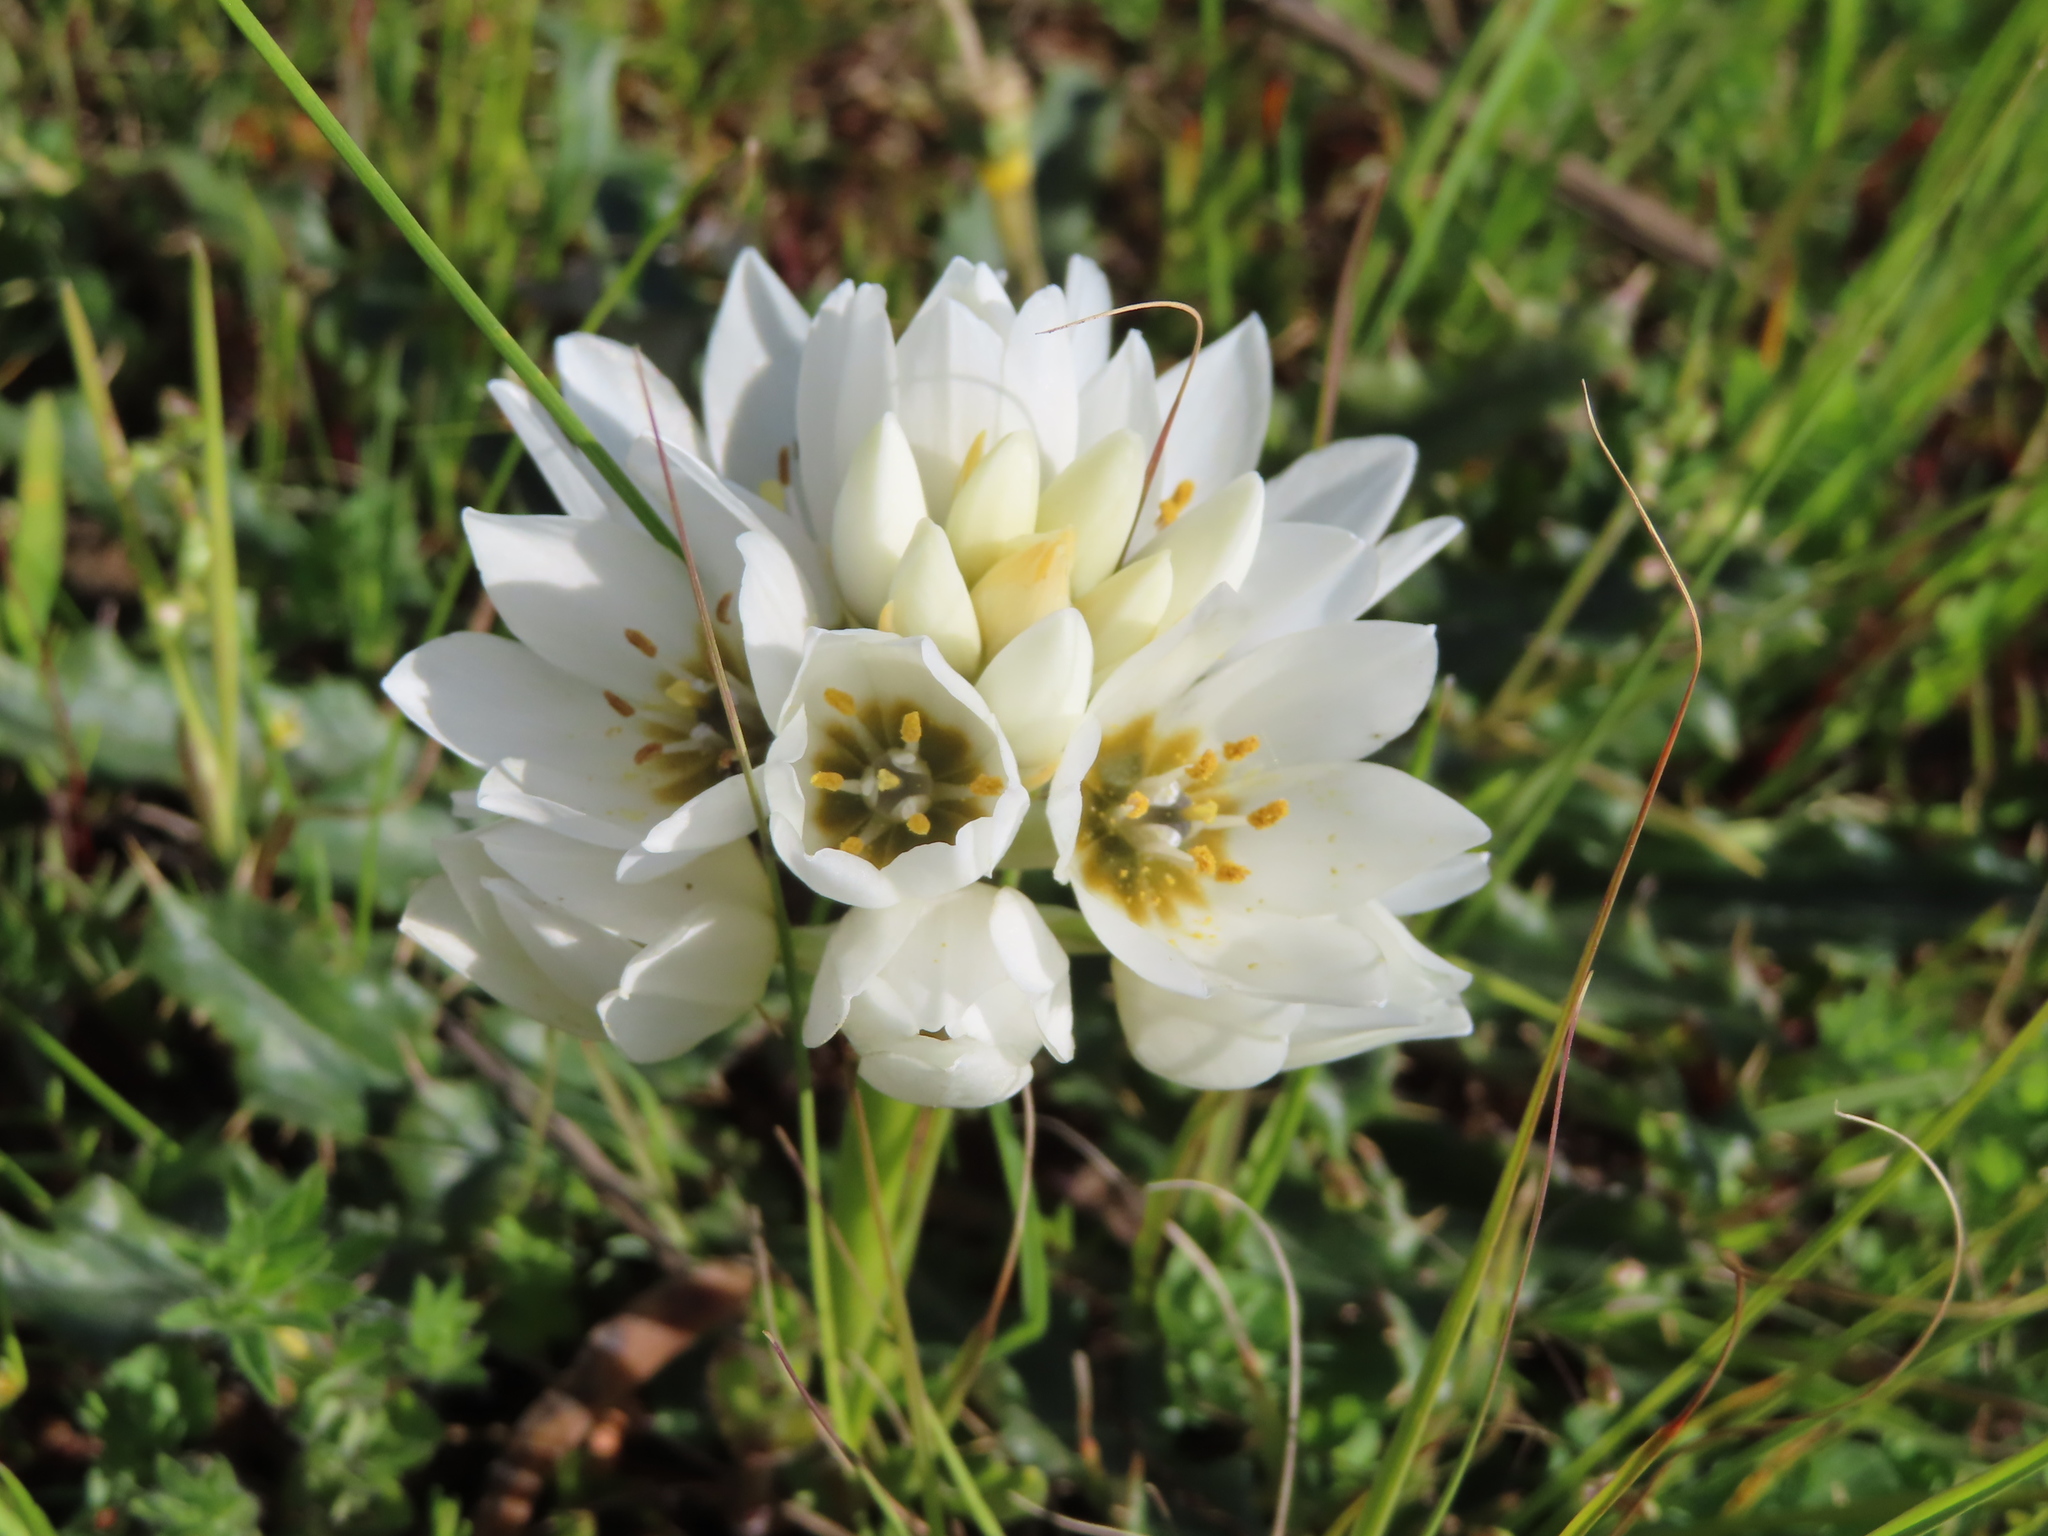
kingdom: Plantae
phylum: Tracheophyta
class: Liliopsida
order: Asparagales
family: Asparagaceae
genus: Ornithogalum
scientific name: Ornithogalum thyrsoides
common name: Chincherinchee
